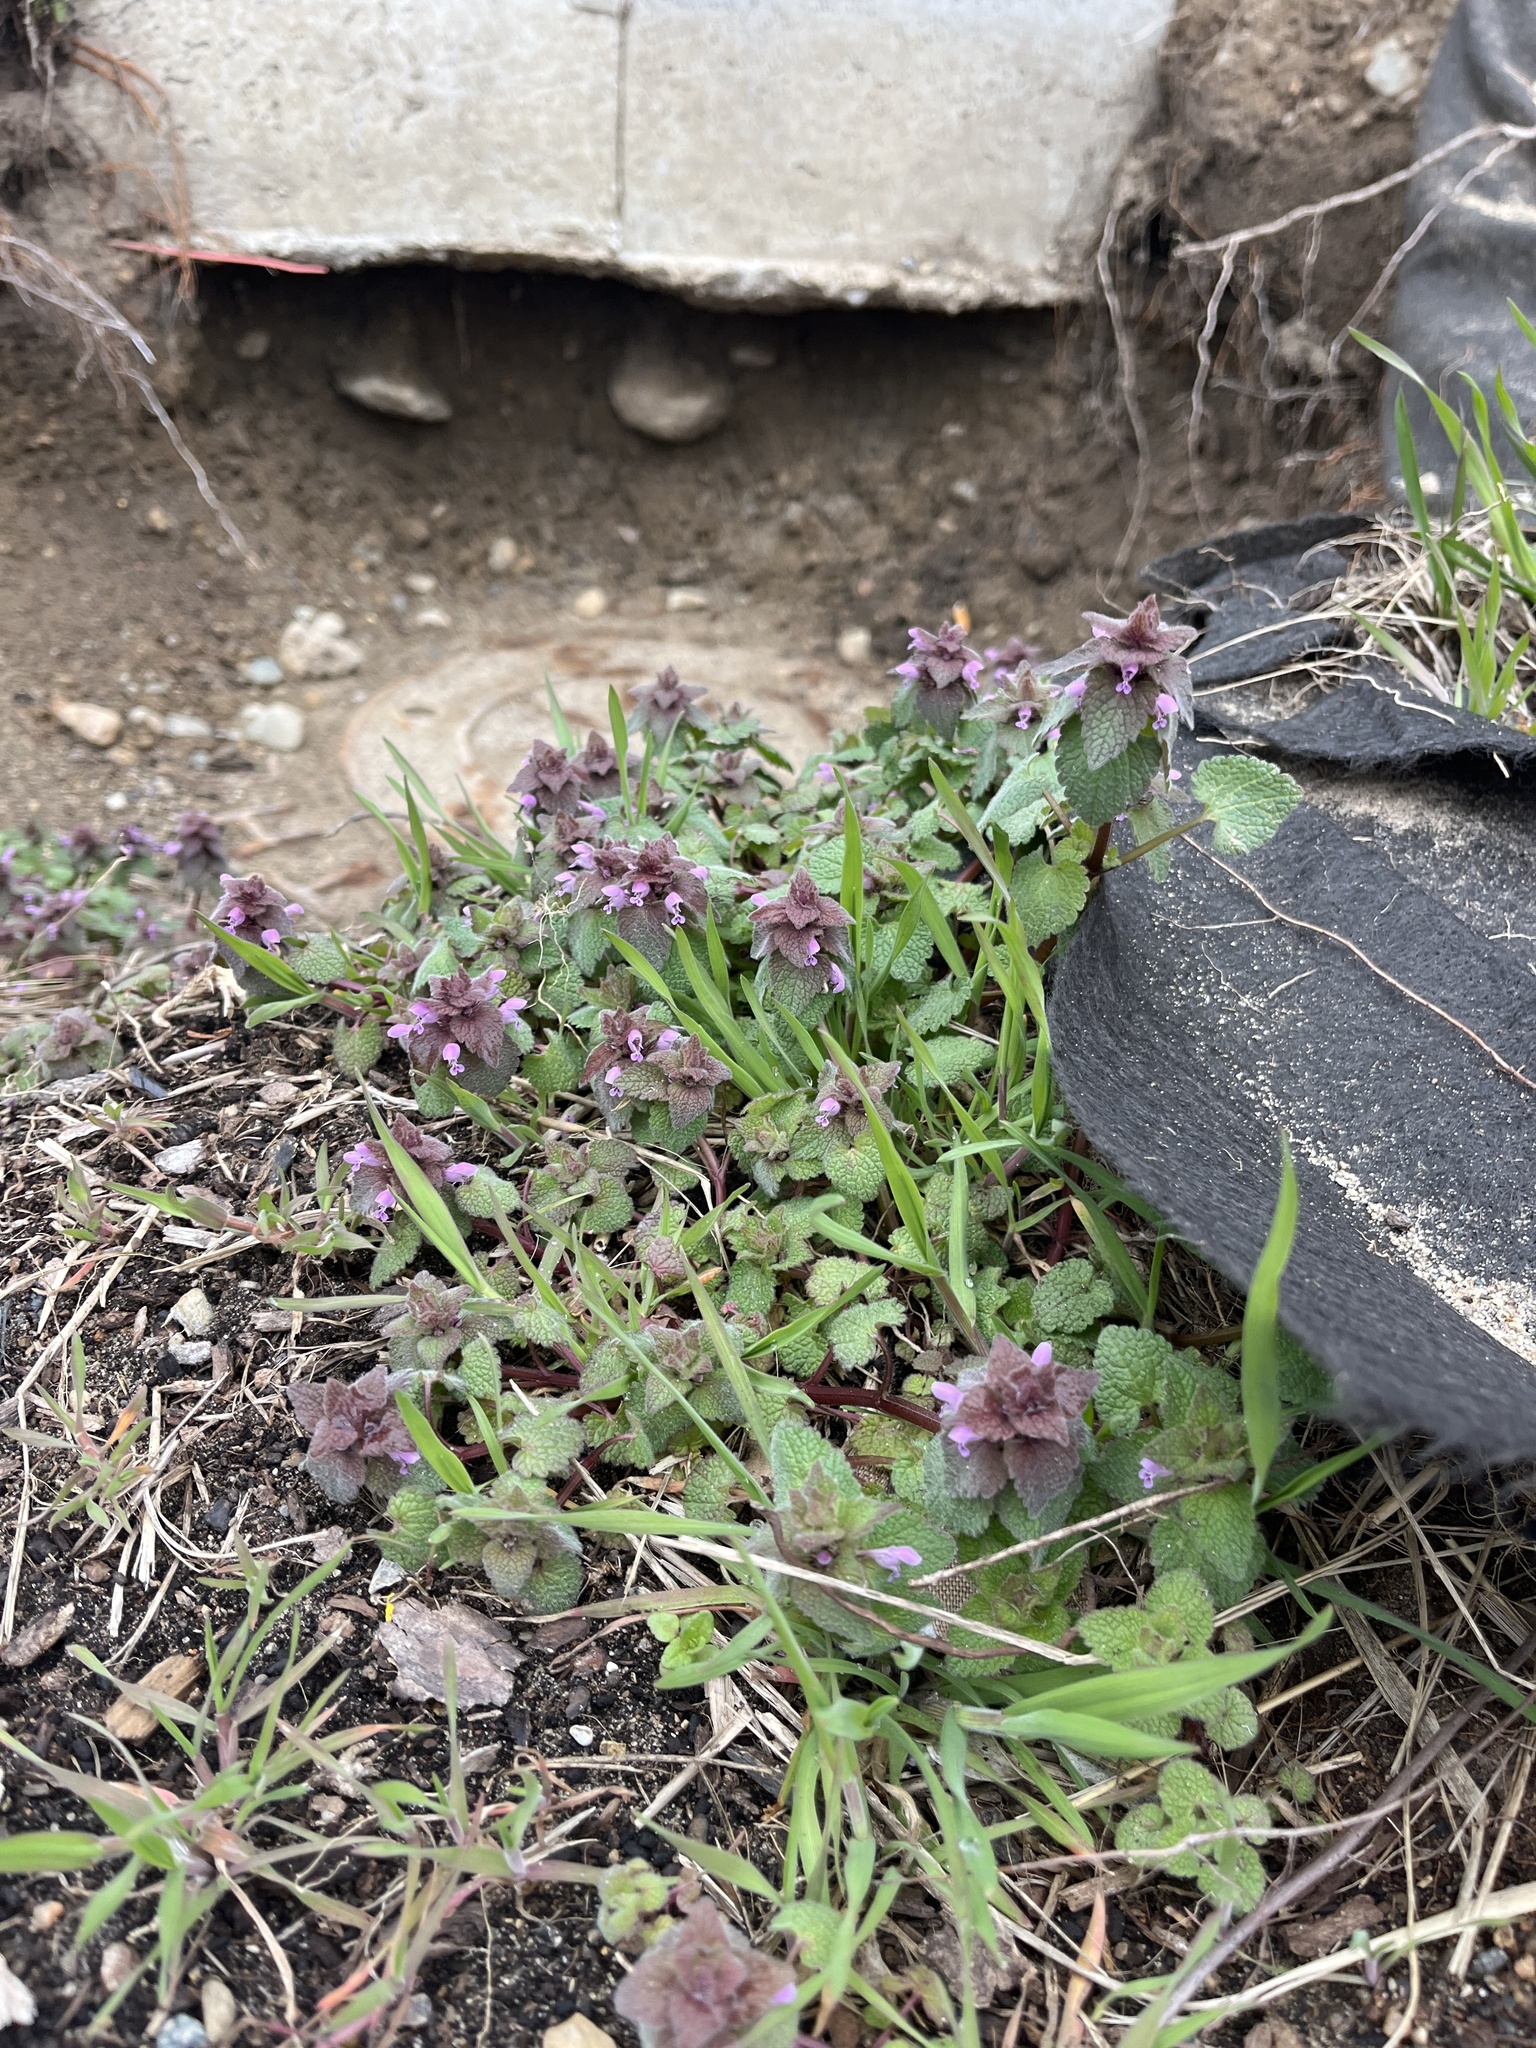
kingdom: Plantae
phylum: Tracheophyta
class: Magnoliopsida
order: Lamiales
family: Lamiaceae
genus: Lamium
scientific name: Lamium purpureum
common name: Red dead-nettle
